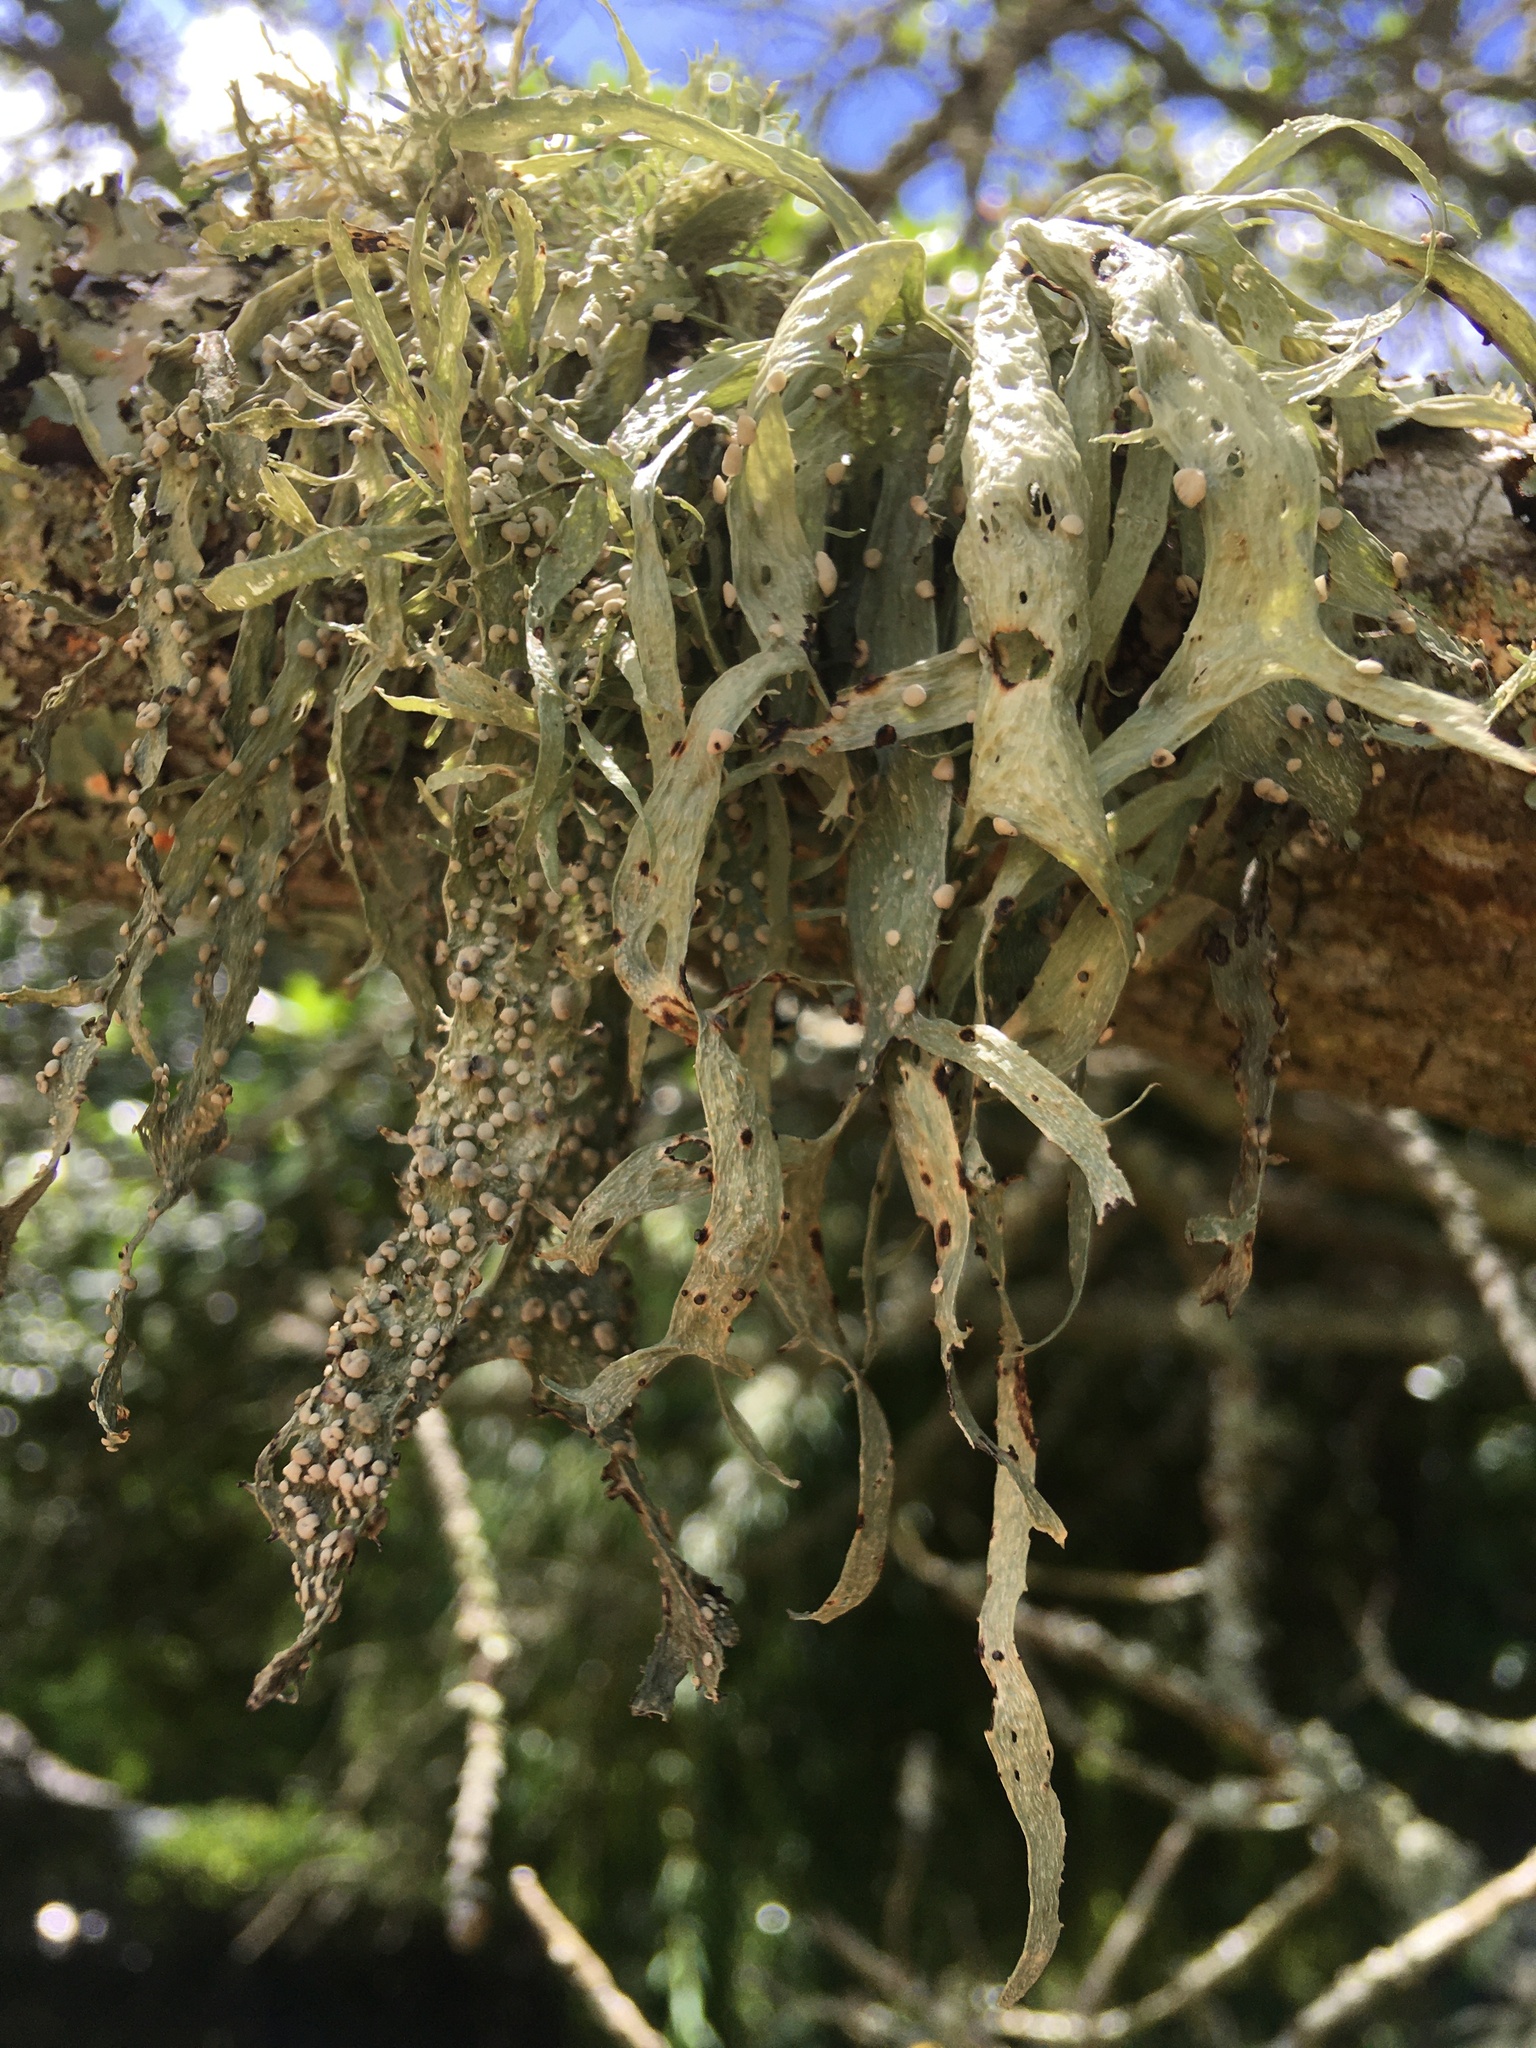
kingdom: Fungi
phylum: Ascomycota
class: Lecanoromycetes
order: Lecanorales
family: Ramalinaceae
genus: Ramalina
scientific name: Ramalina celastri
